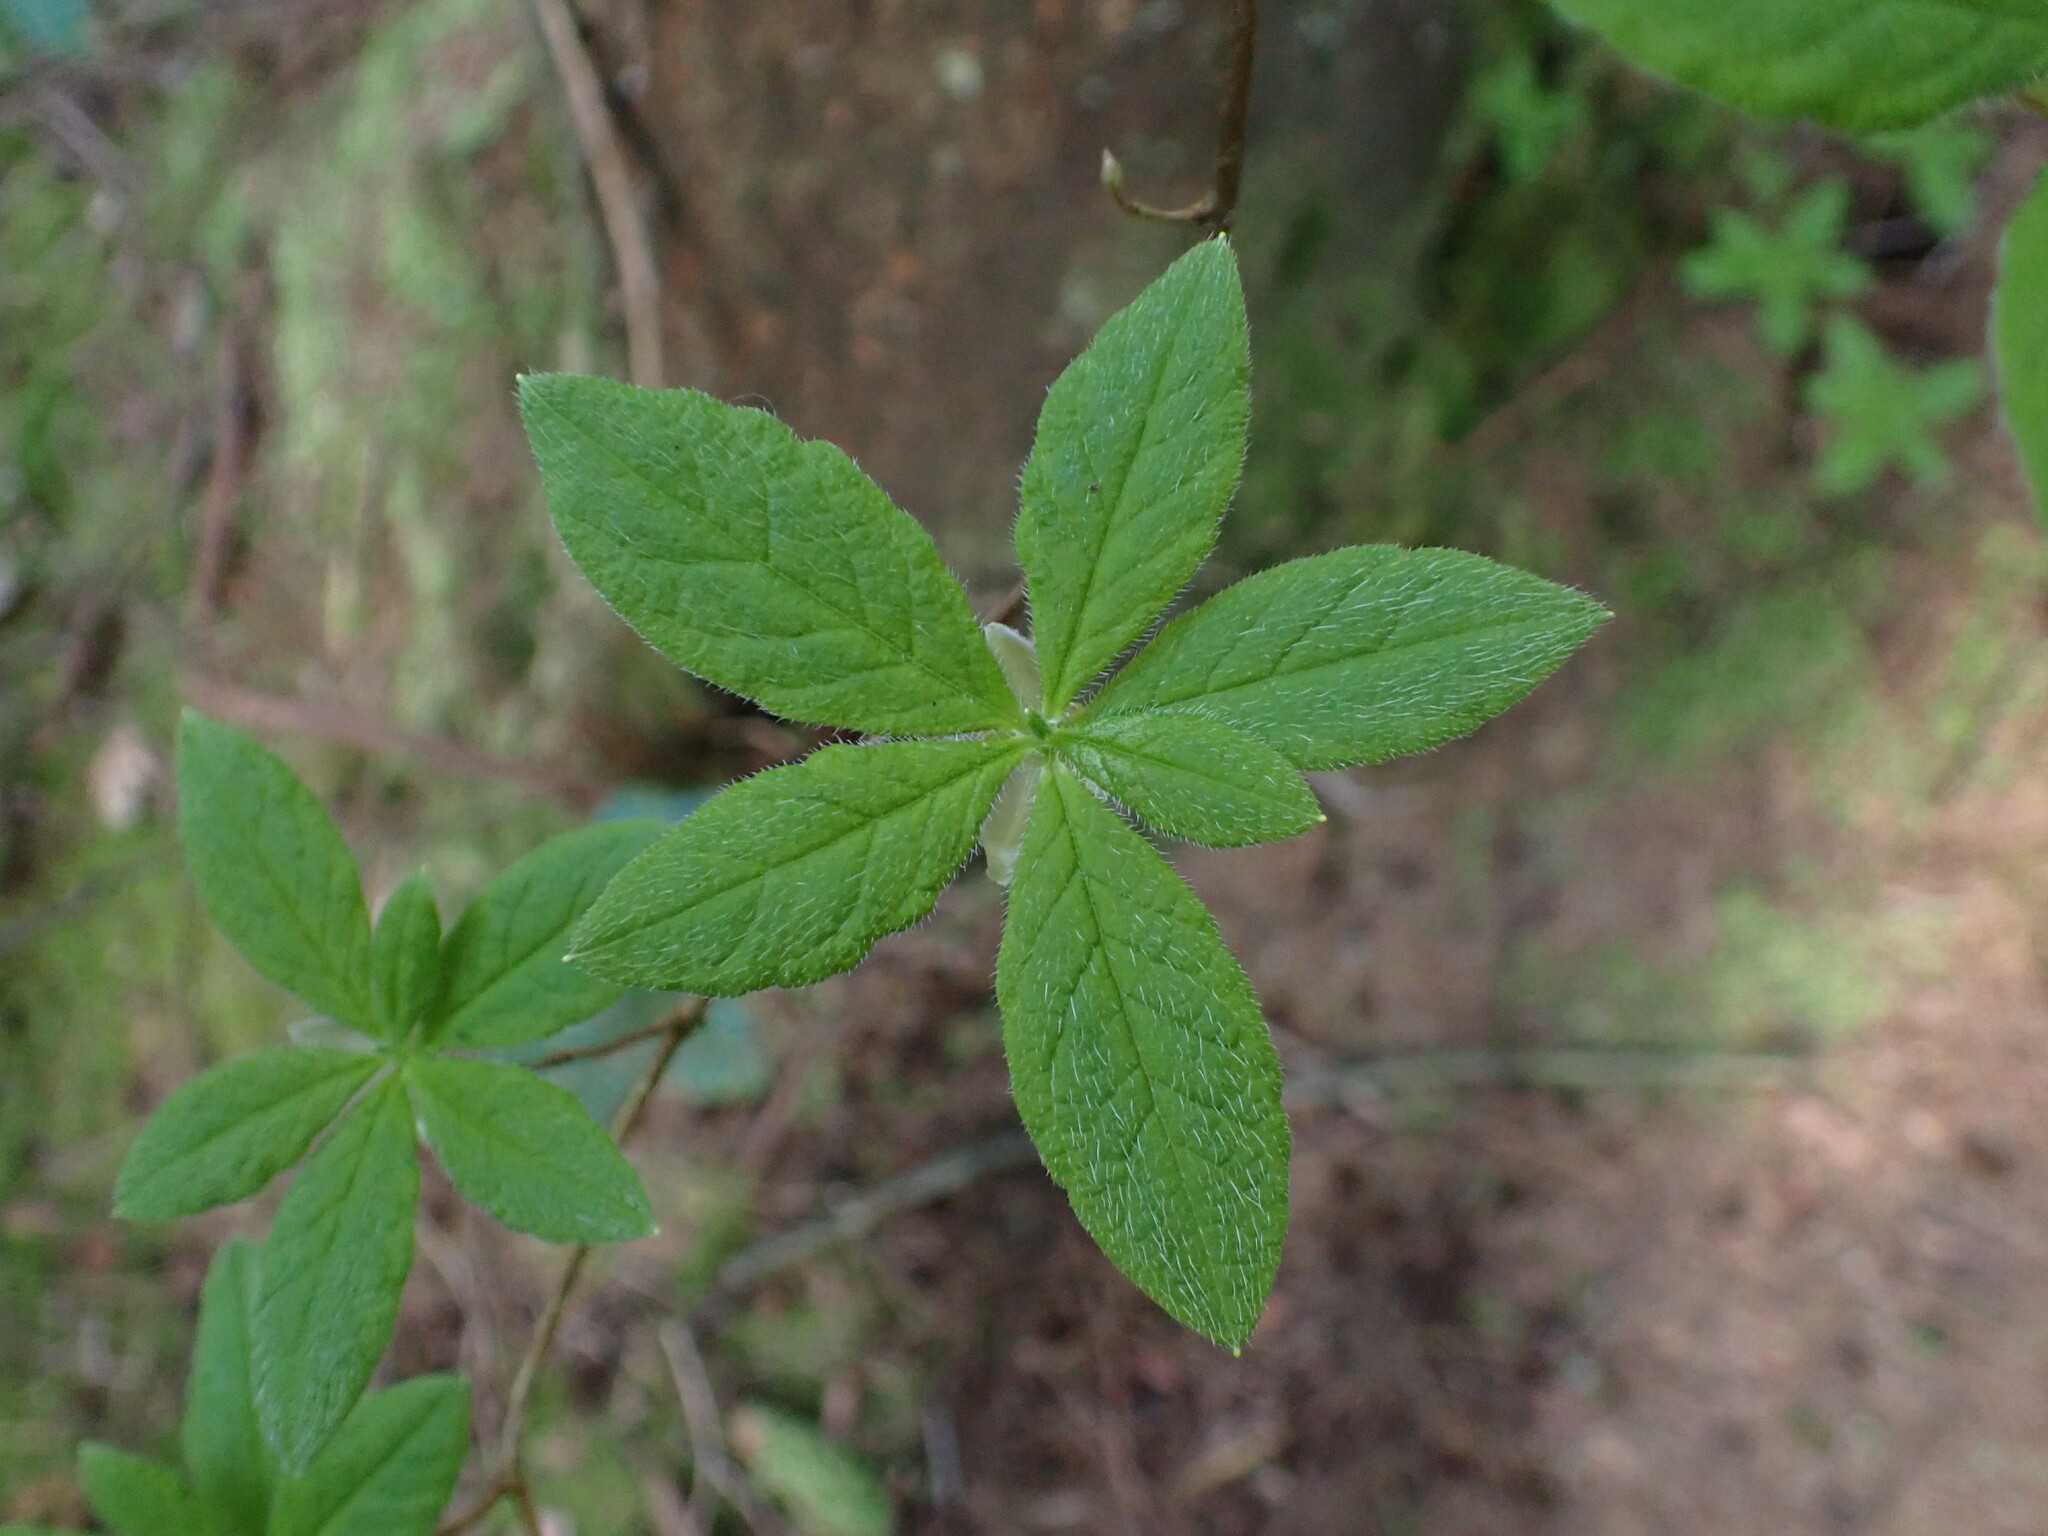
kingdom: Plantae
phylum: Tracheophyta
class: Magnoliopsida
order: Ericales
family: Ericaceae
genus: Rhododendron
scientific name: Rhododendron menziesii
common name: Pacific menziesia
